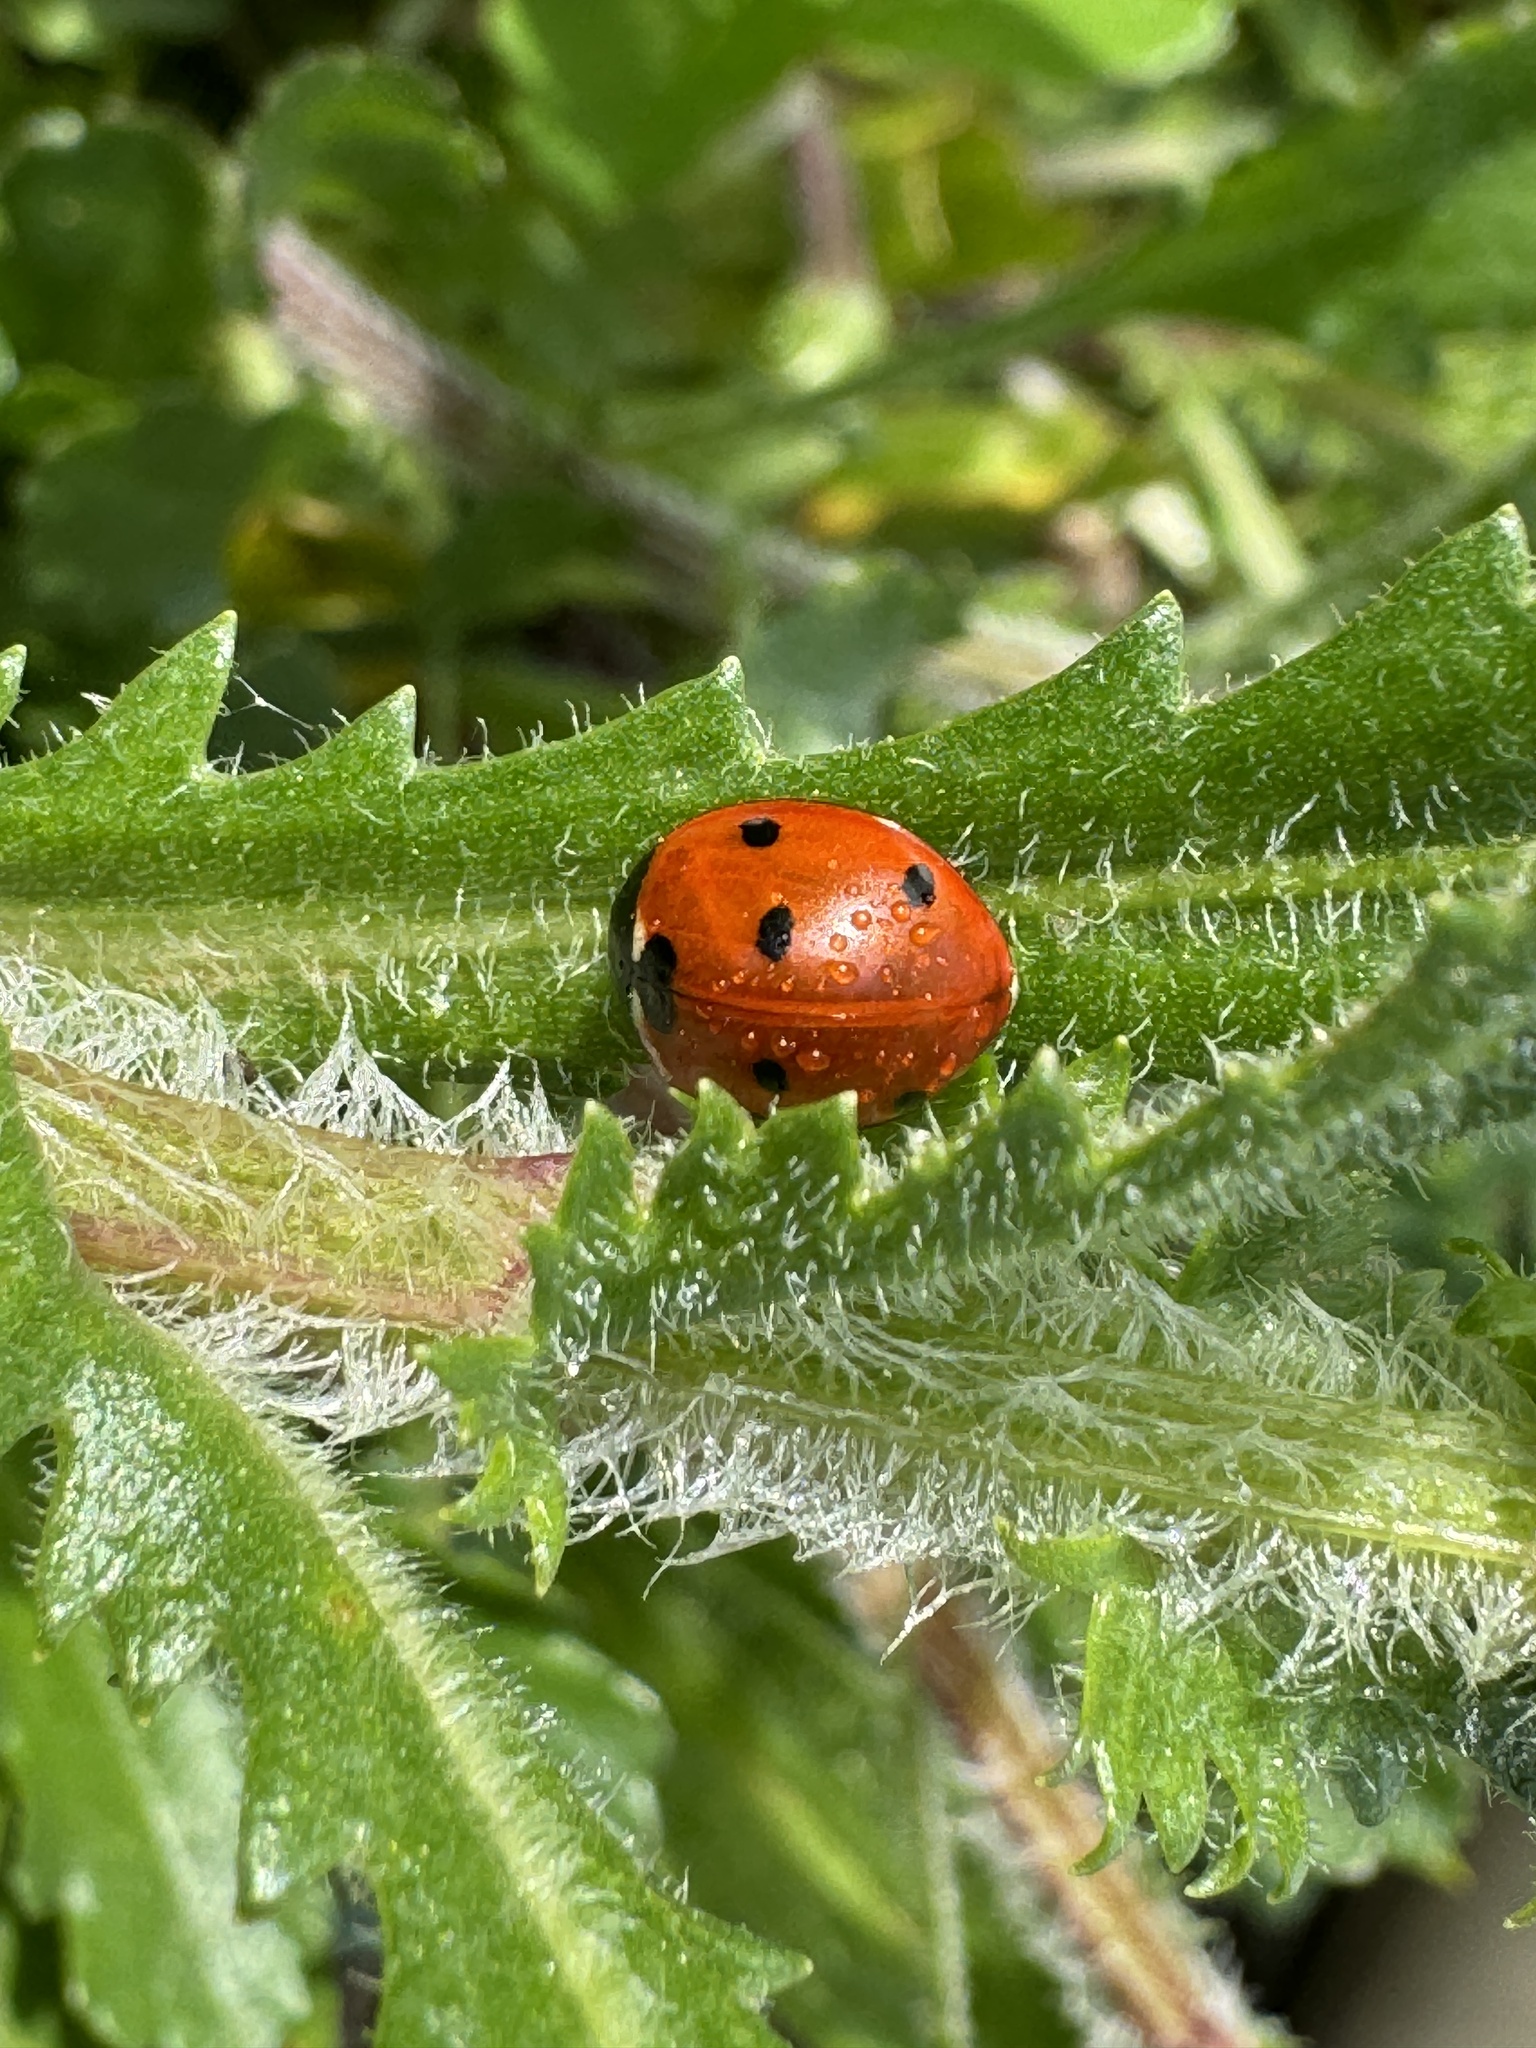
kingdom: Animalia
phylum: Arthropoda
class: Insecta
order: Coleoptera
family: Coccinellidae
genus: Coccinella
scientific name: Coccinella septempunctata
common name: Sevenspotted lady beetle
